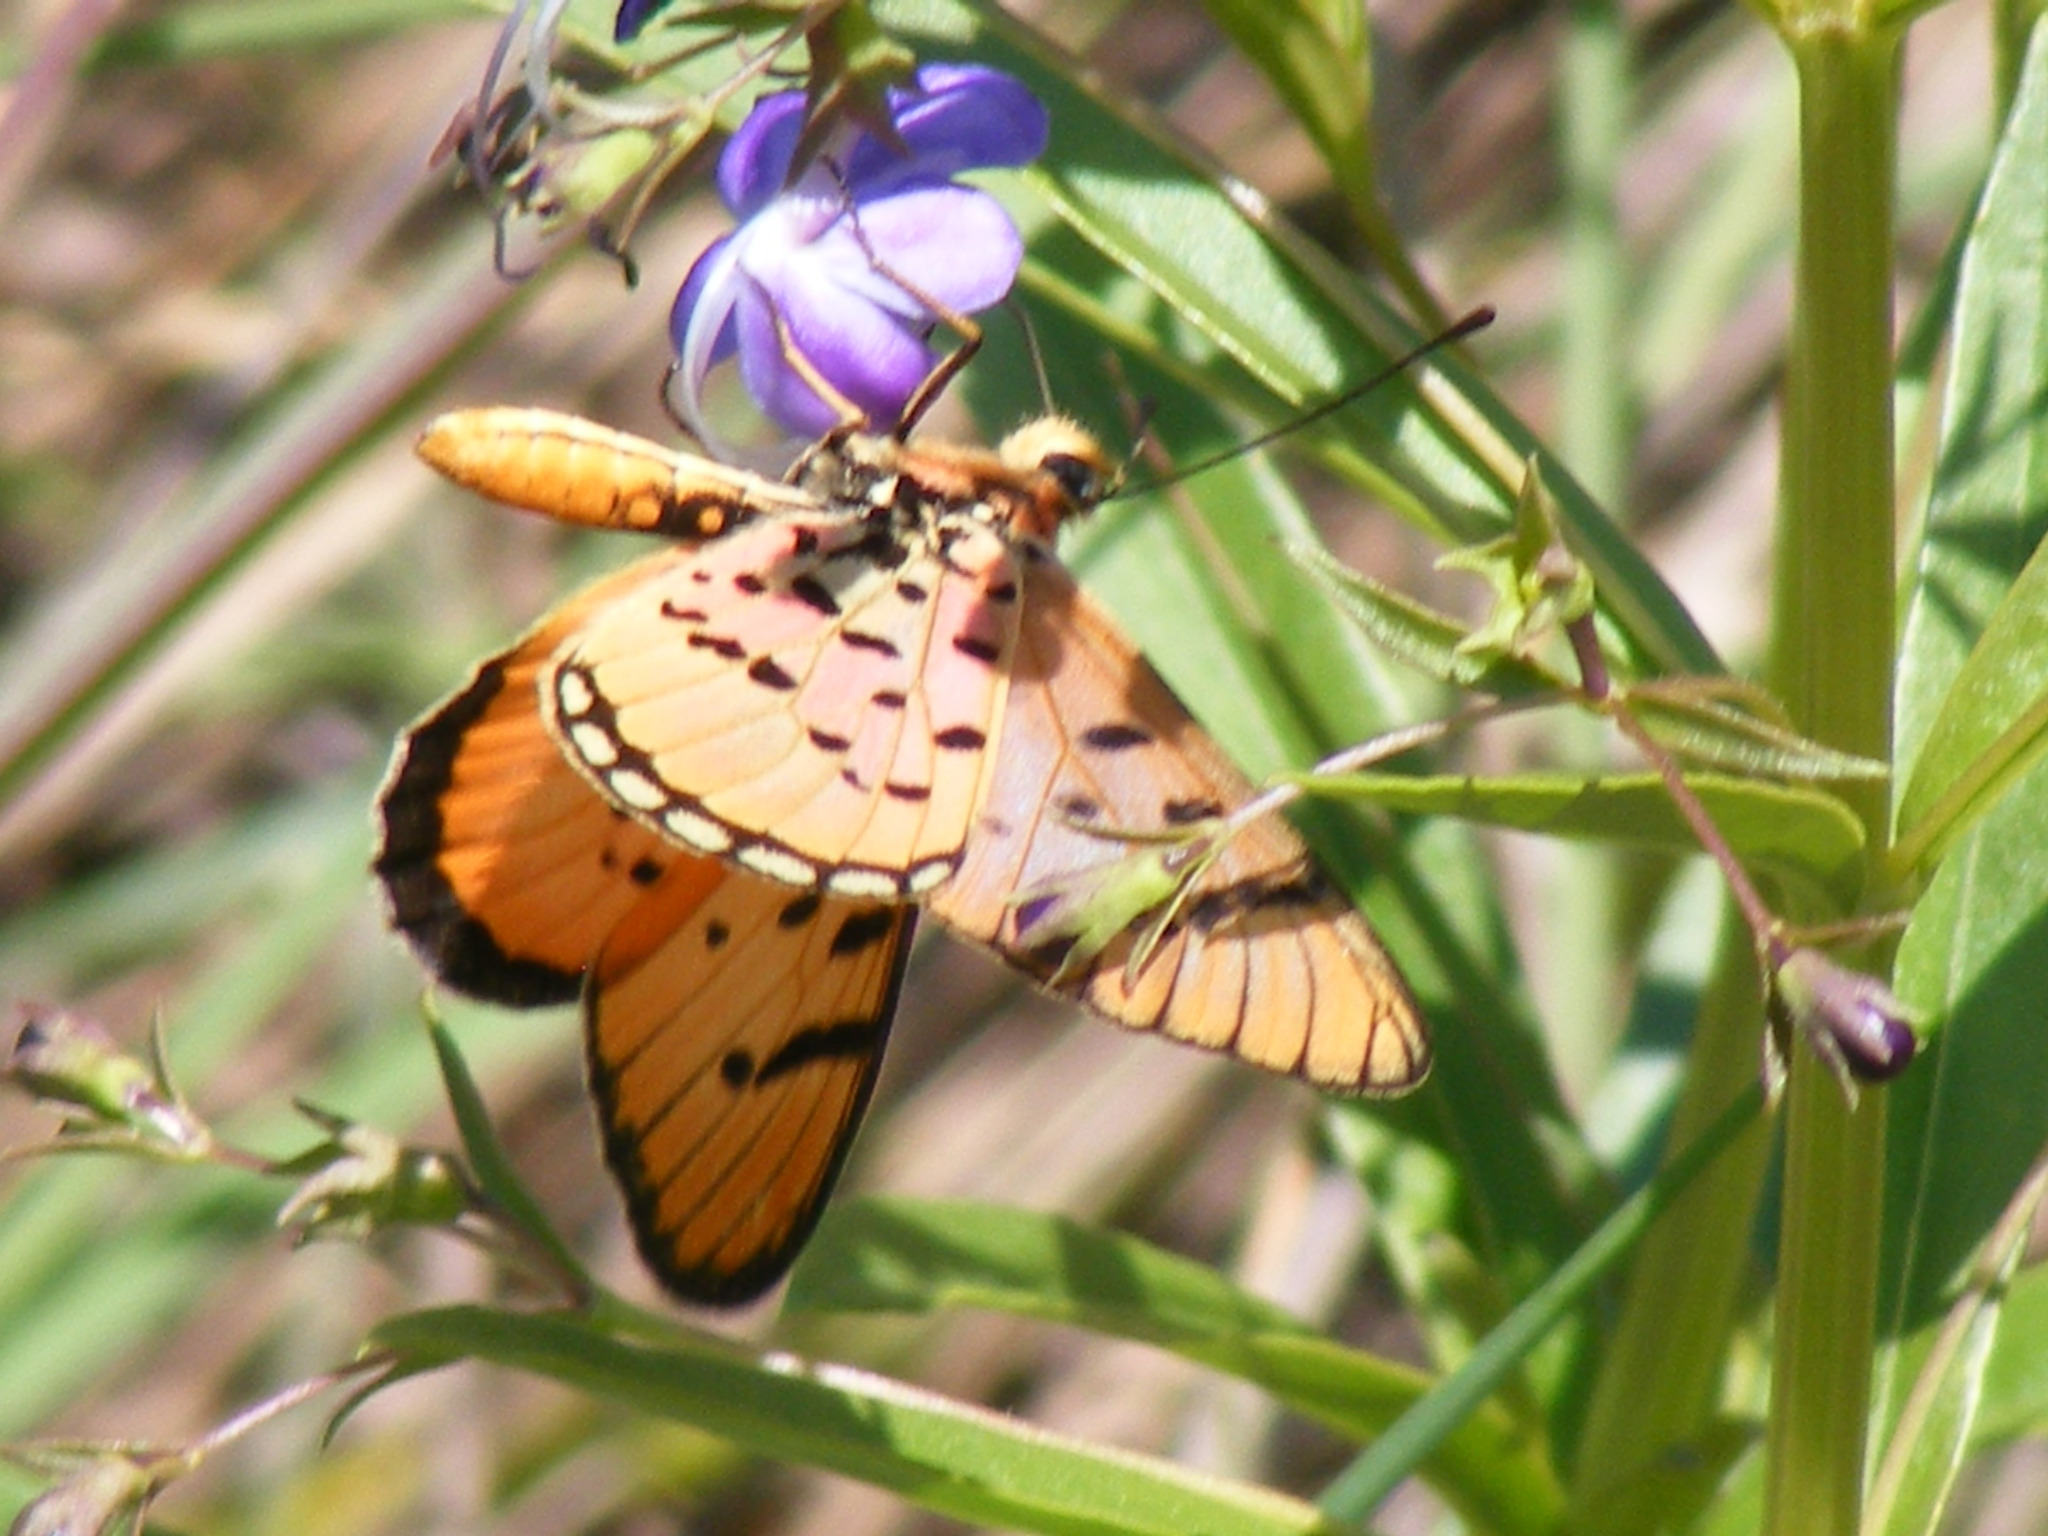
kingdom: Animalia
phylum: Arthropoda
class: Insecta
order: Lepidoptera
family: Nymphalidae
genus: Rubraea
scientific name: Rubraea
